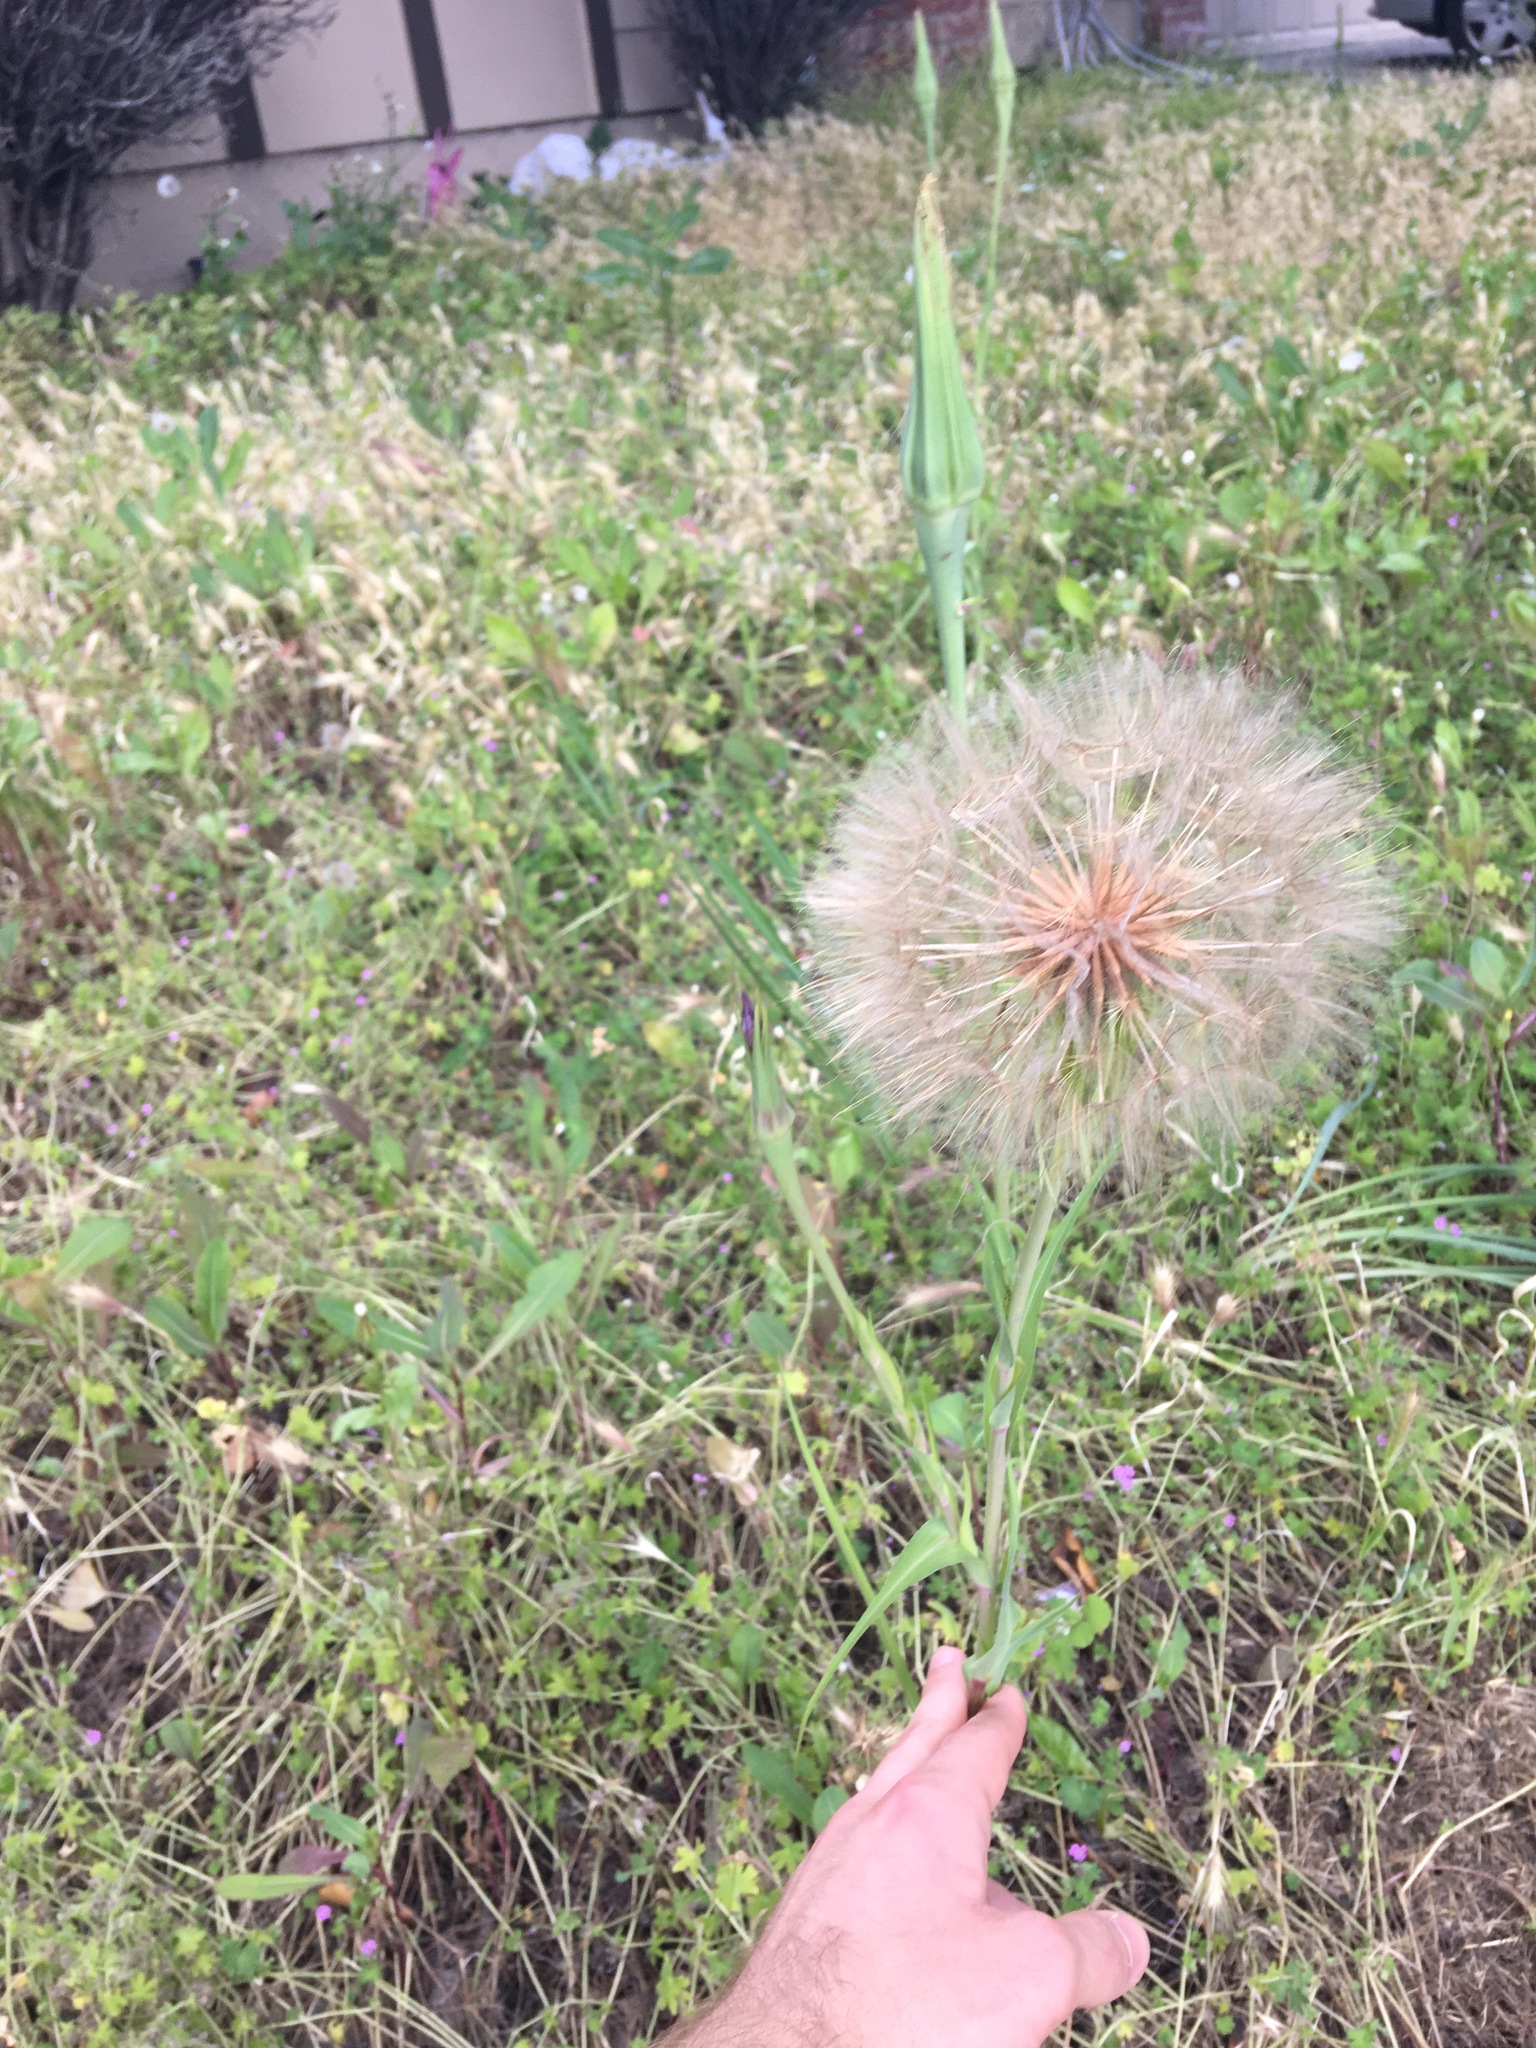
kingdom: Plantae
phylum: Tracheophyta
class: Magnoliopsida
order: Asterales
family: Asteraceae
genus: Tragopogon
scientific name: Tragopogon porrifolius
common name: Salsify
